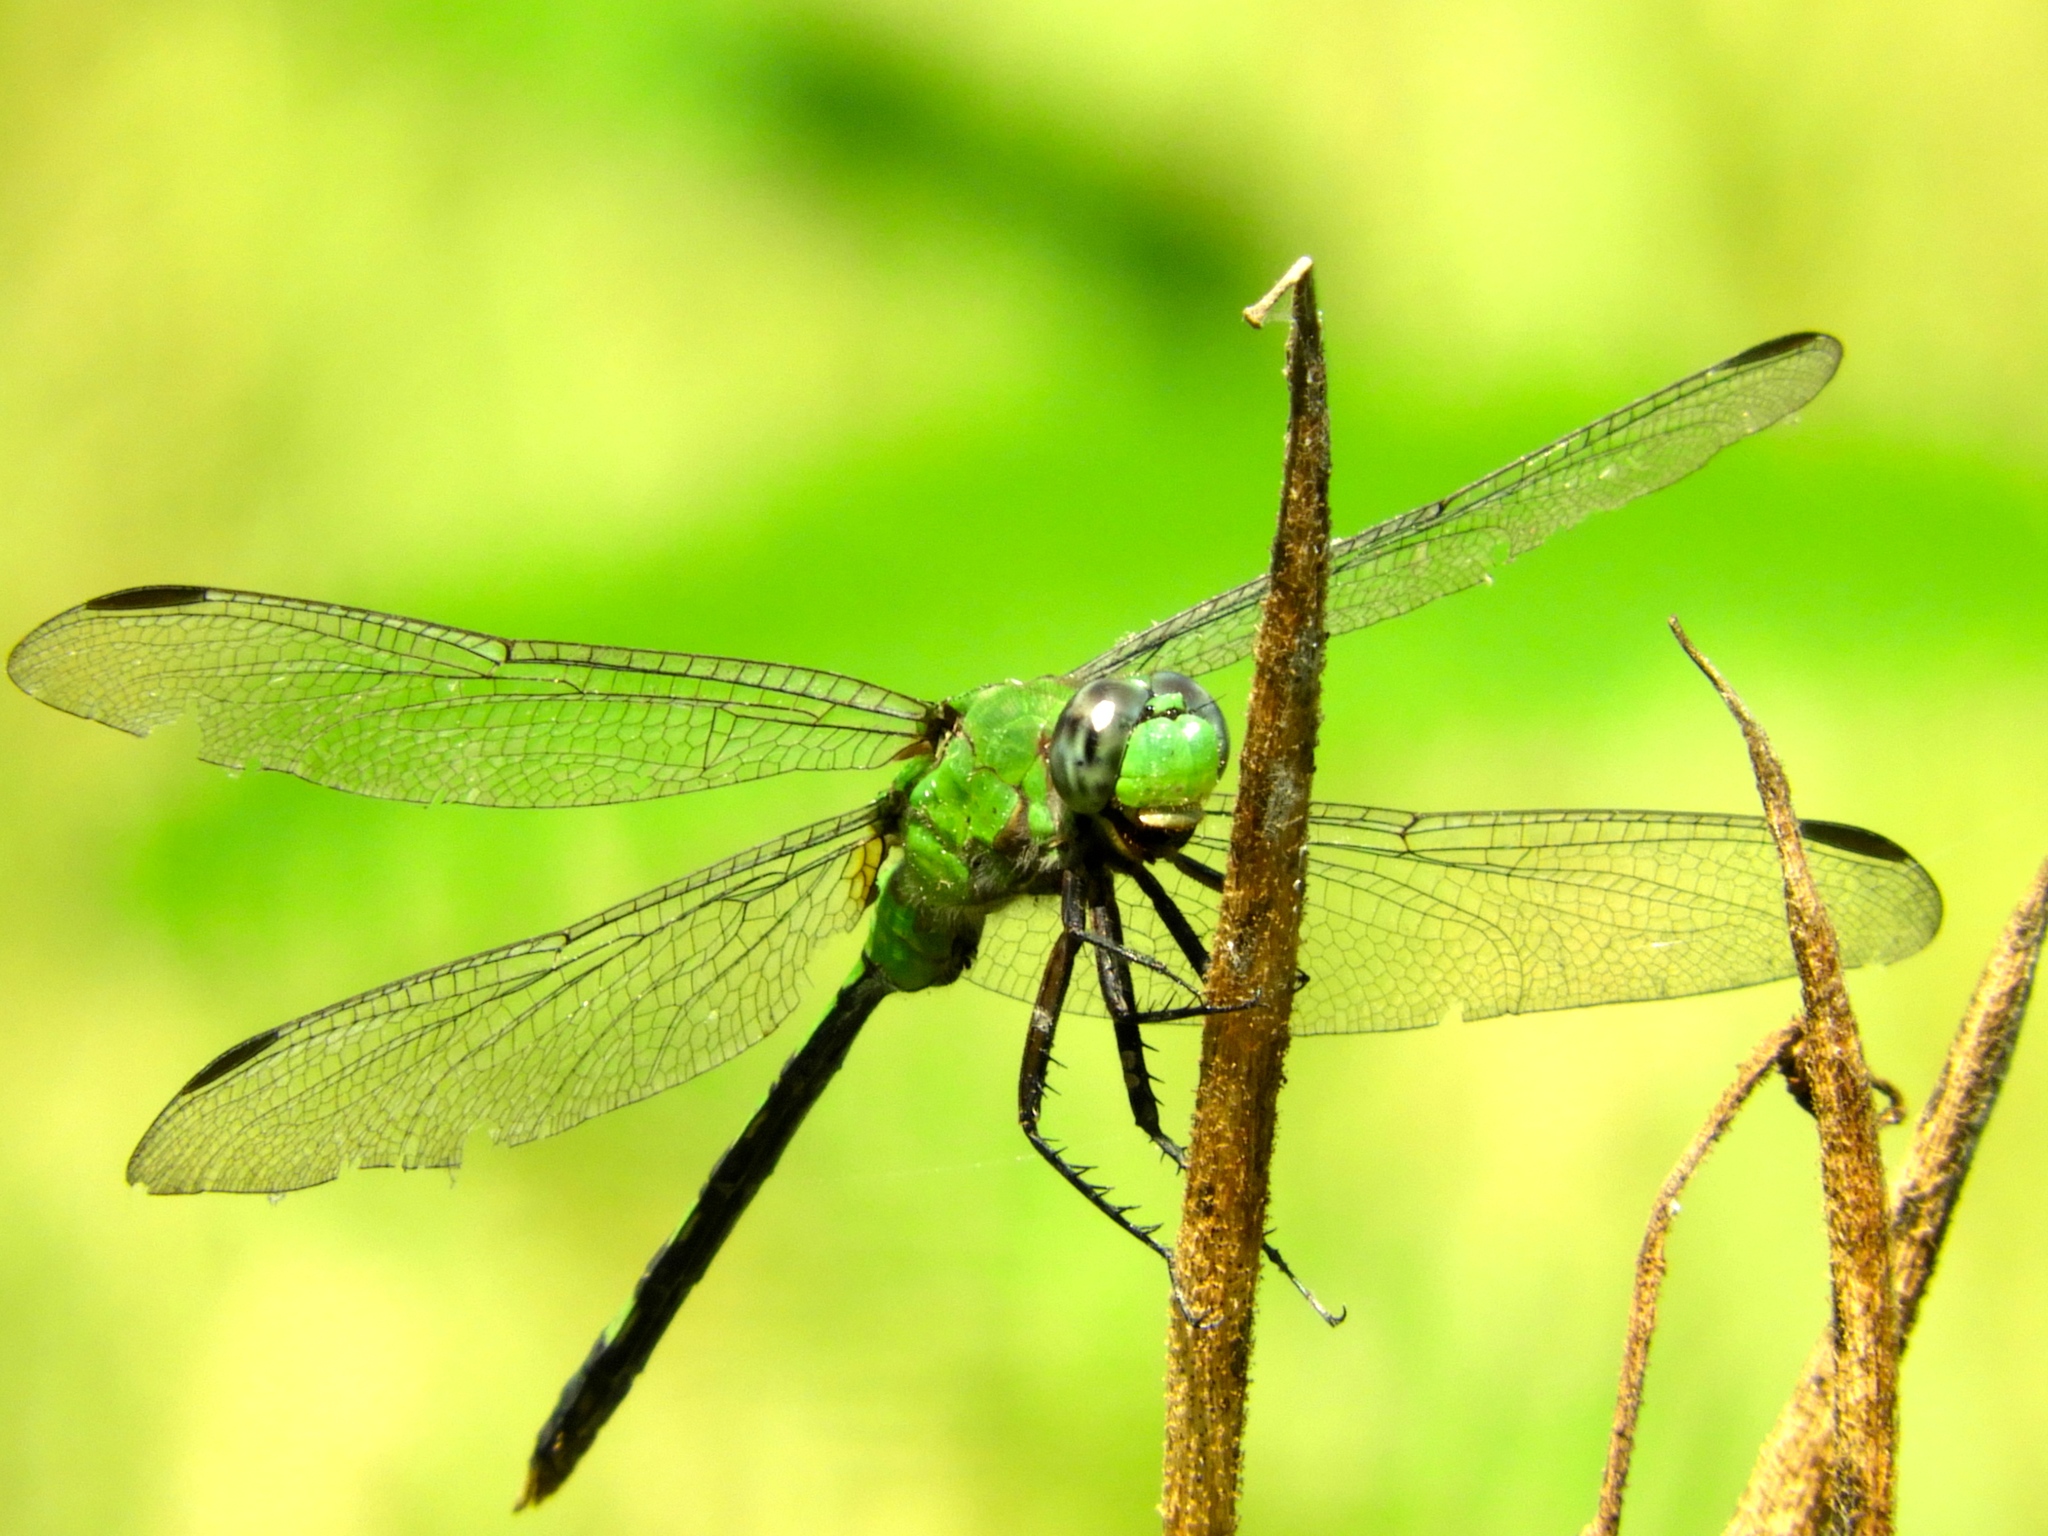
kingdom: Animalia
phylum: Arthropoda
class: Insecta
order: Odonata
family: Libellulidae
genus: Erythemis
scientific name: Erythemis vesiculosa
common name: Great pondhawk
